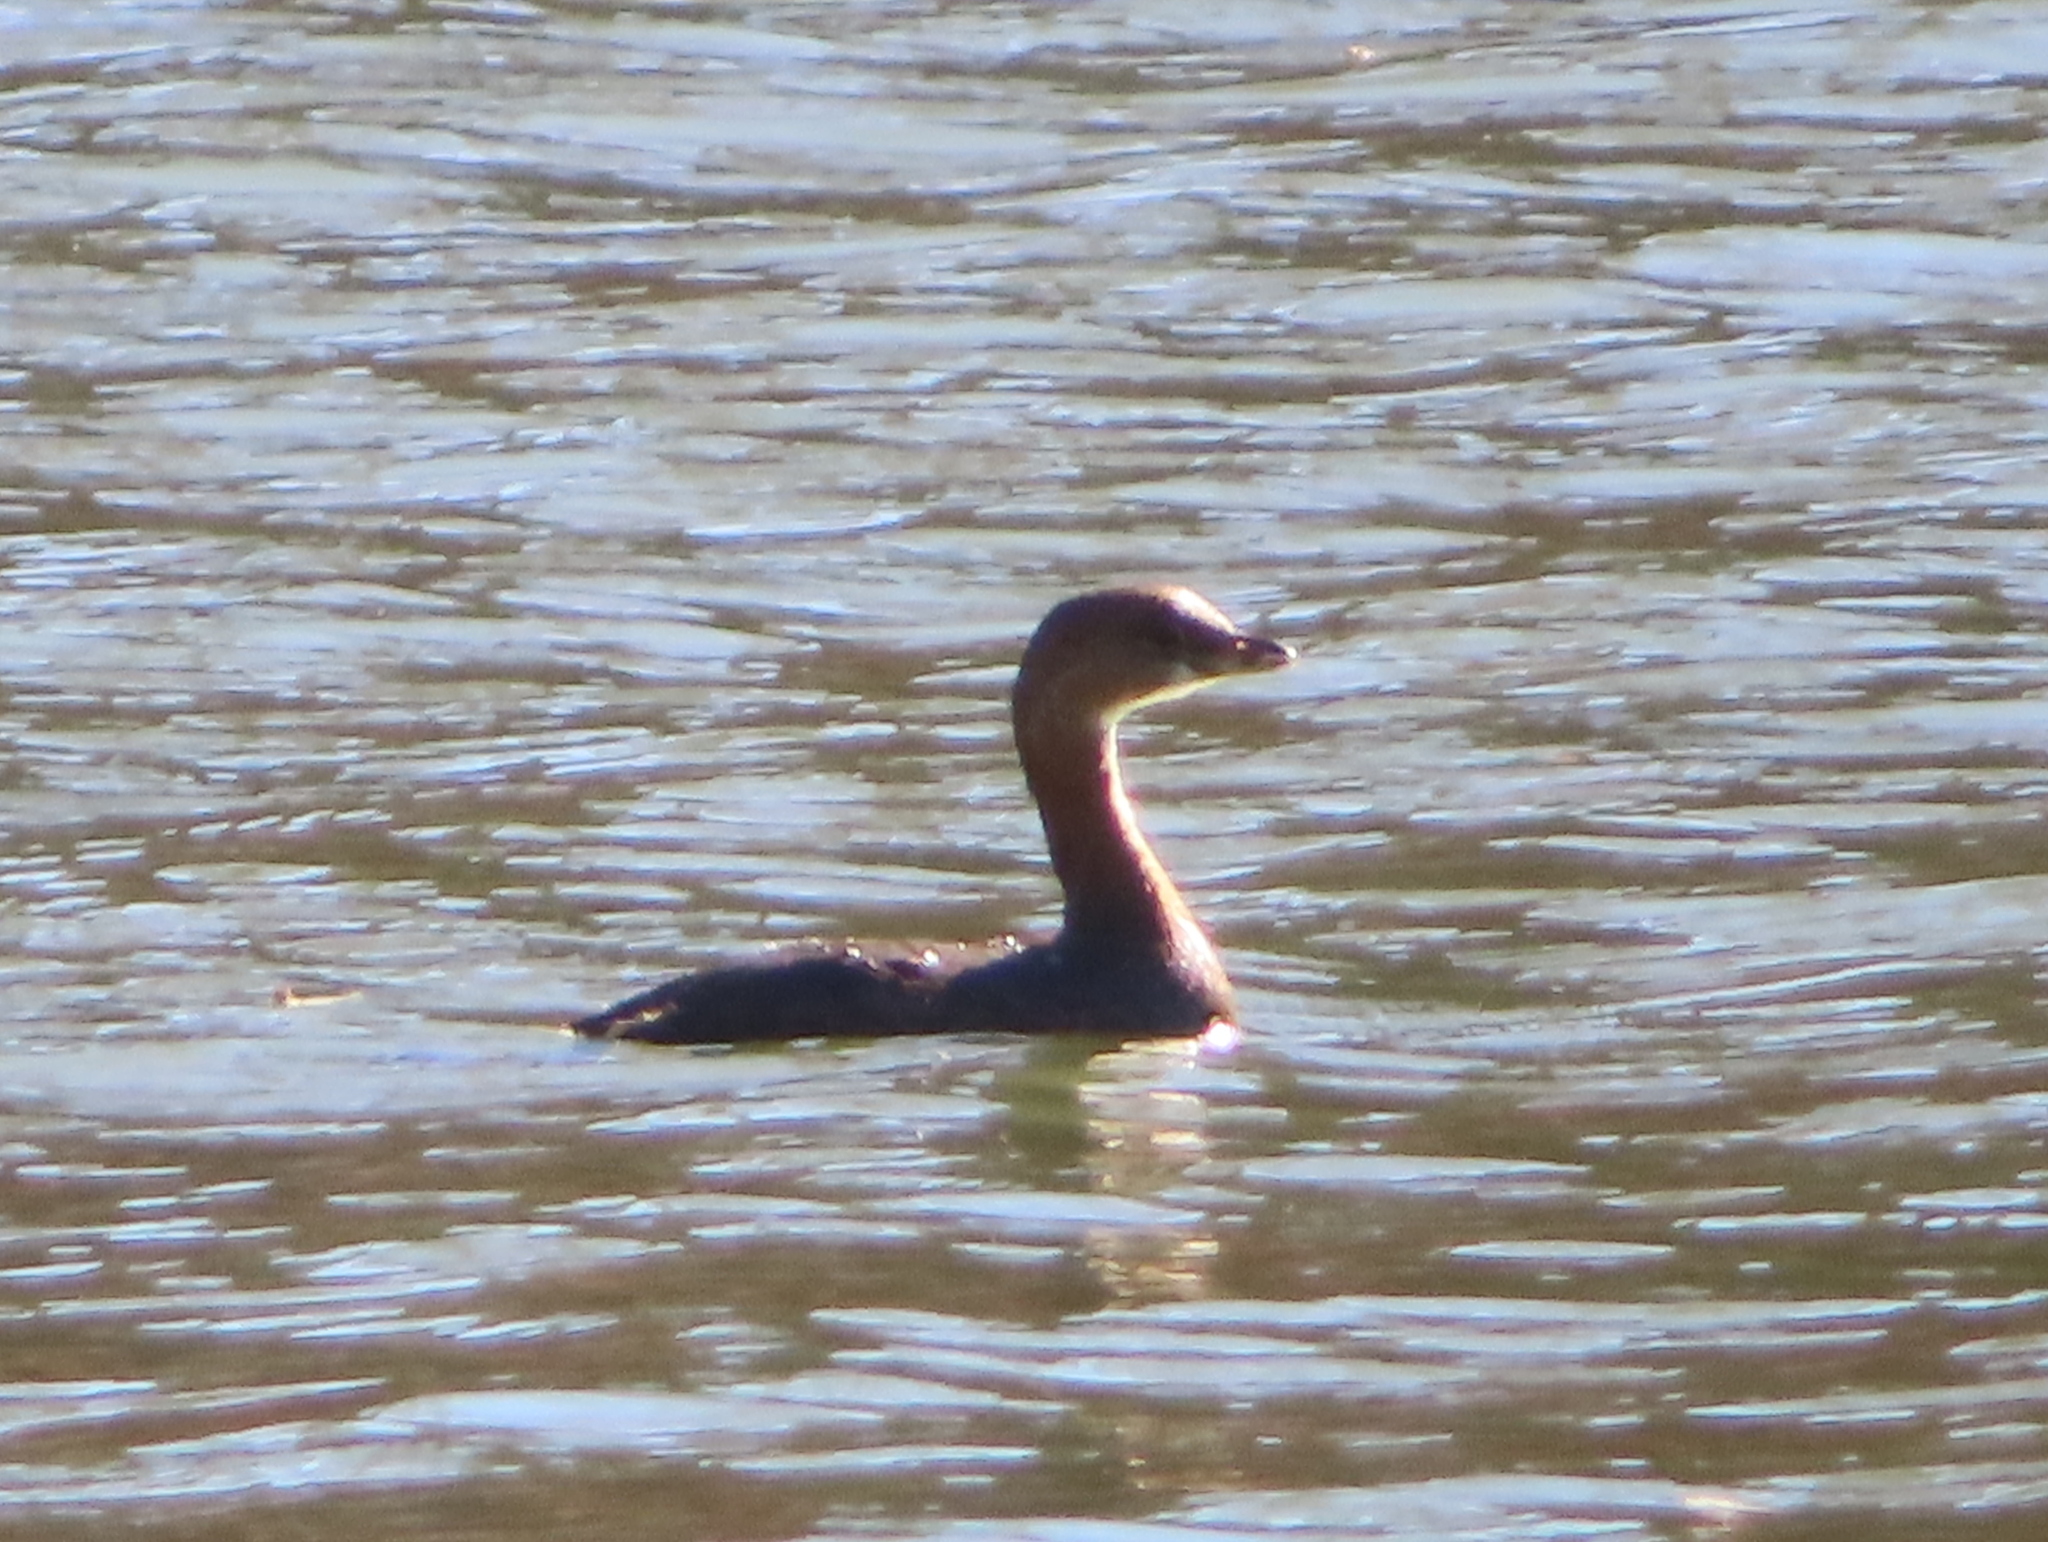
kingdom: Animalia
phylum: Chordata
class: Aves
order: Podicipediformes
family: Podicipedidae
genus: Podilymbus
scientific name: Podilymbus podiceps
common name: Pied-billed grebe
